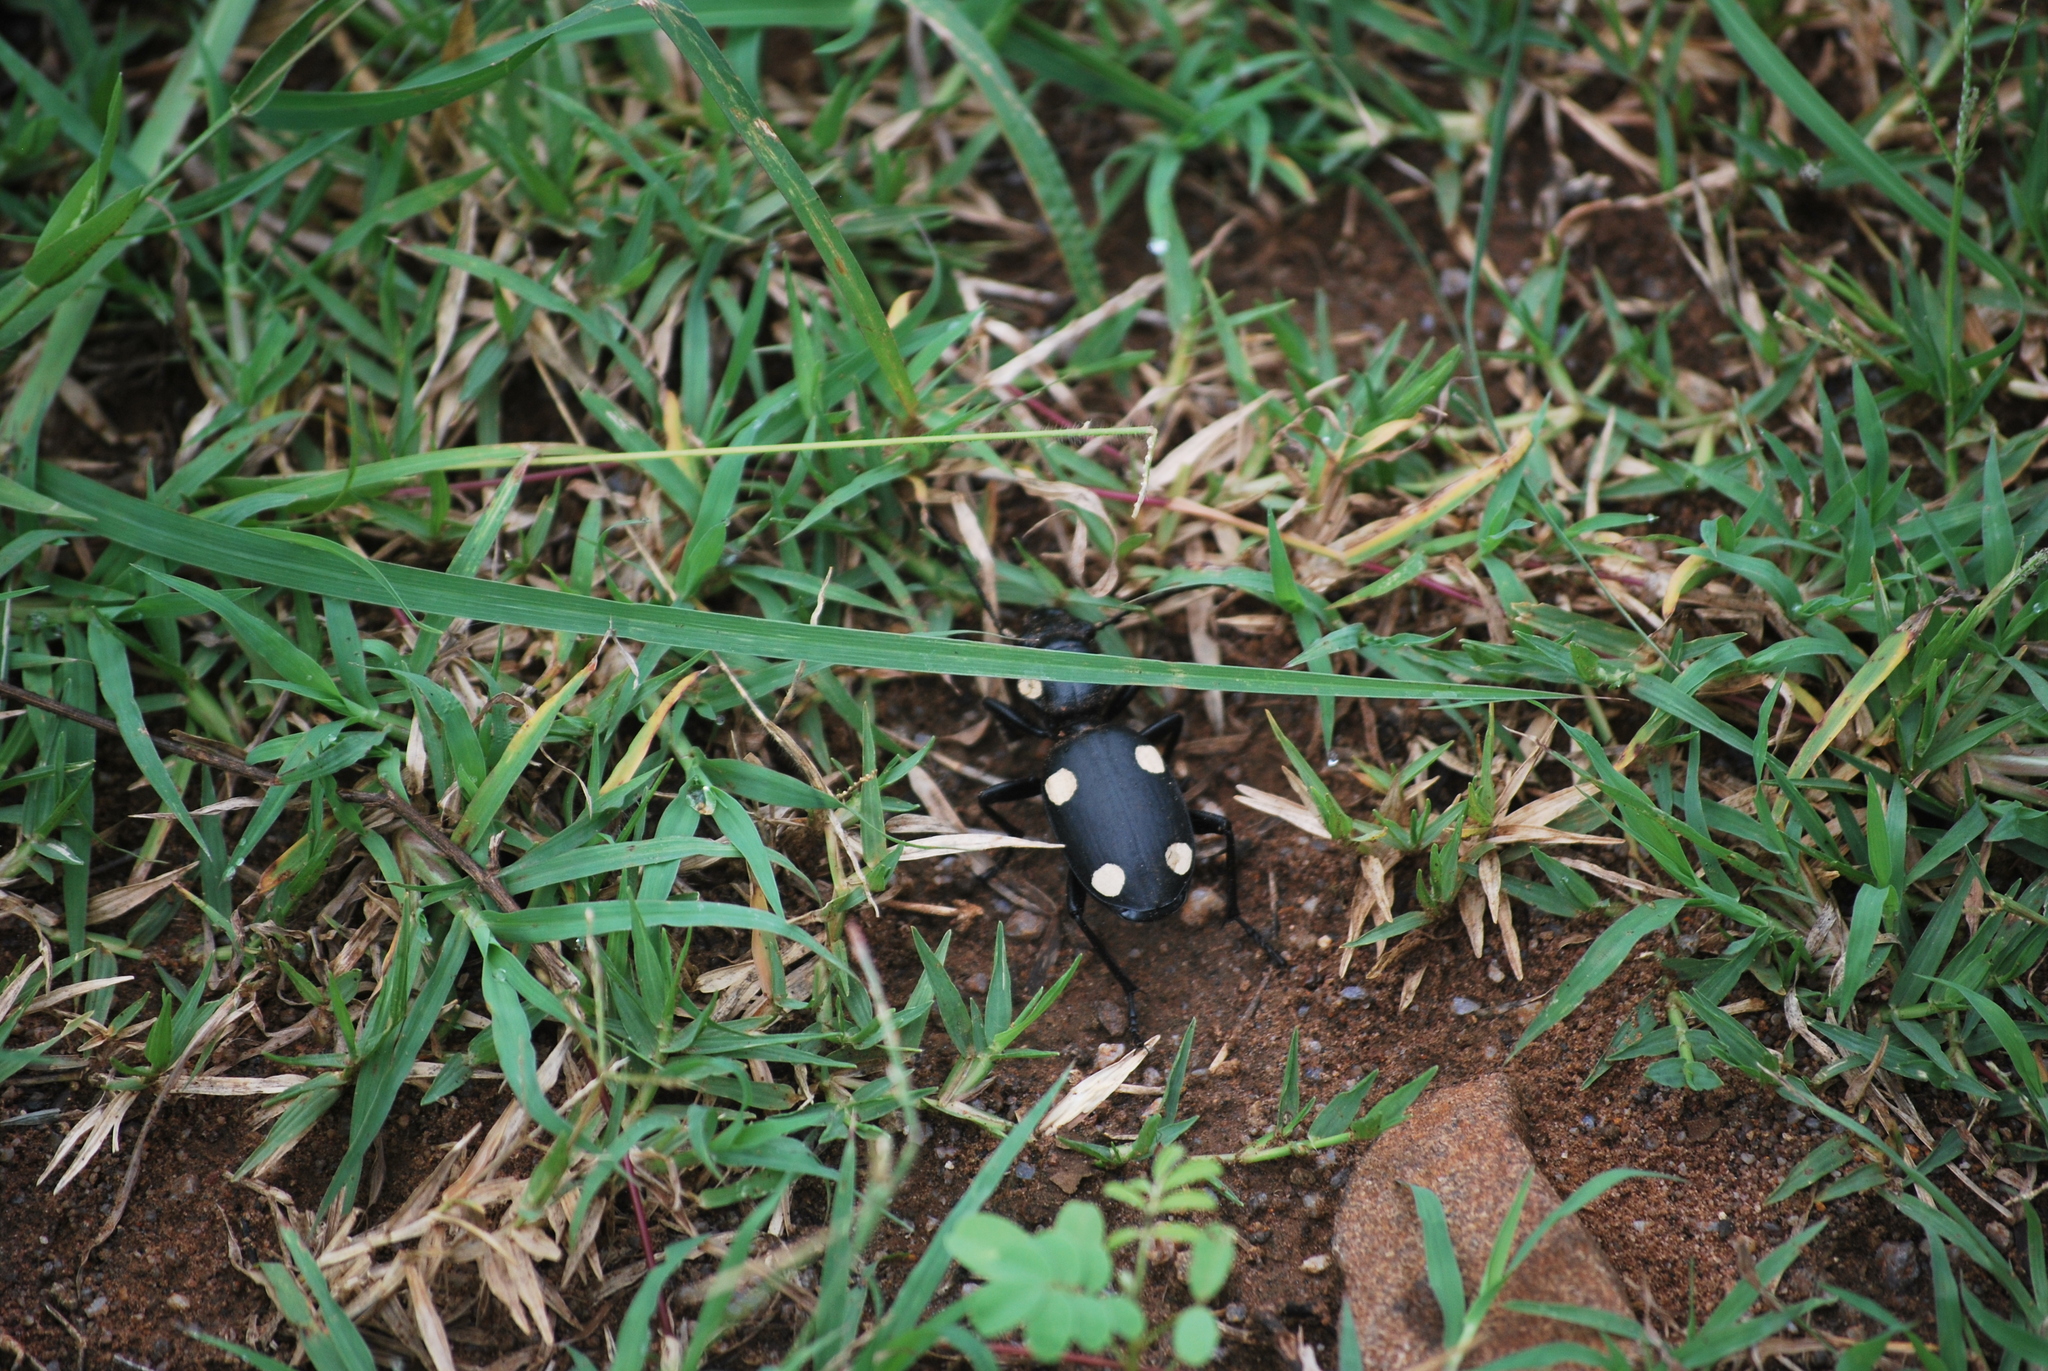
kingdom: Animalia
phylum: Arthropoda
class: Insecta
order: Coleoptera
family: Carabidae
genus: Anthia
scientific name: Anthia sexguttata
